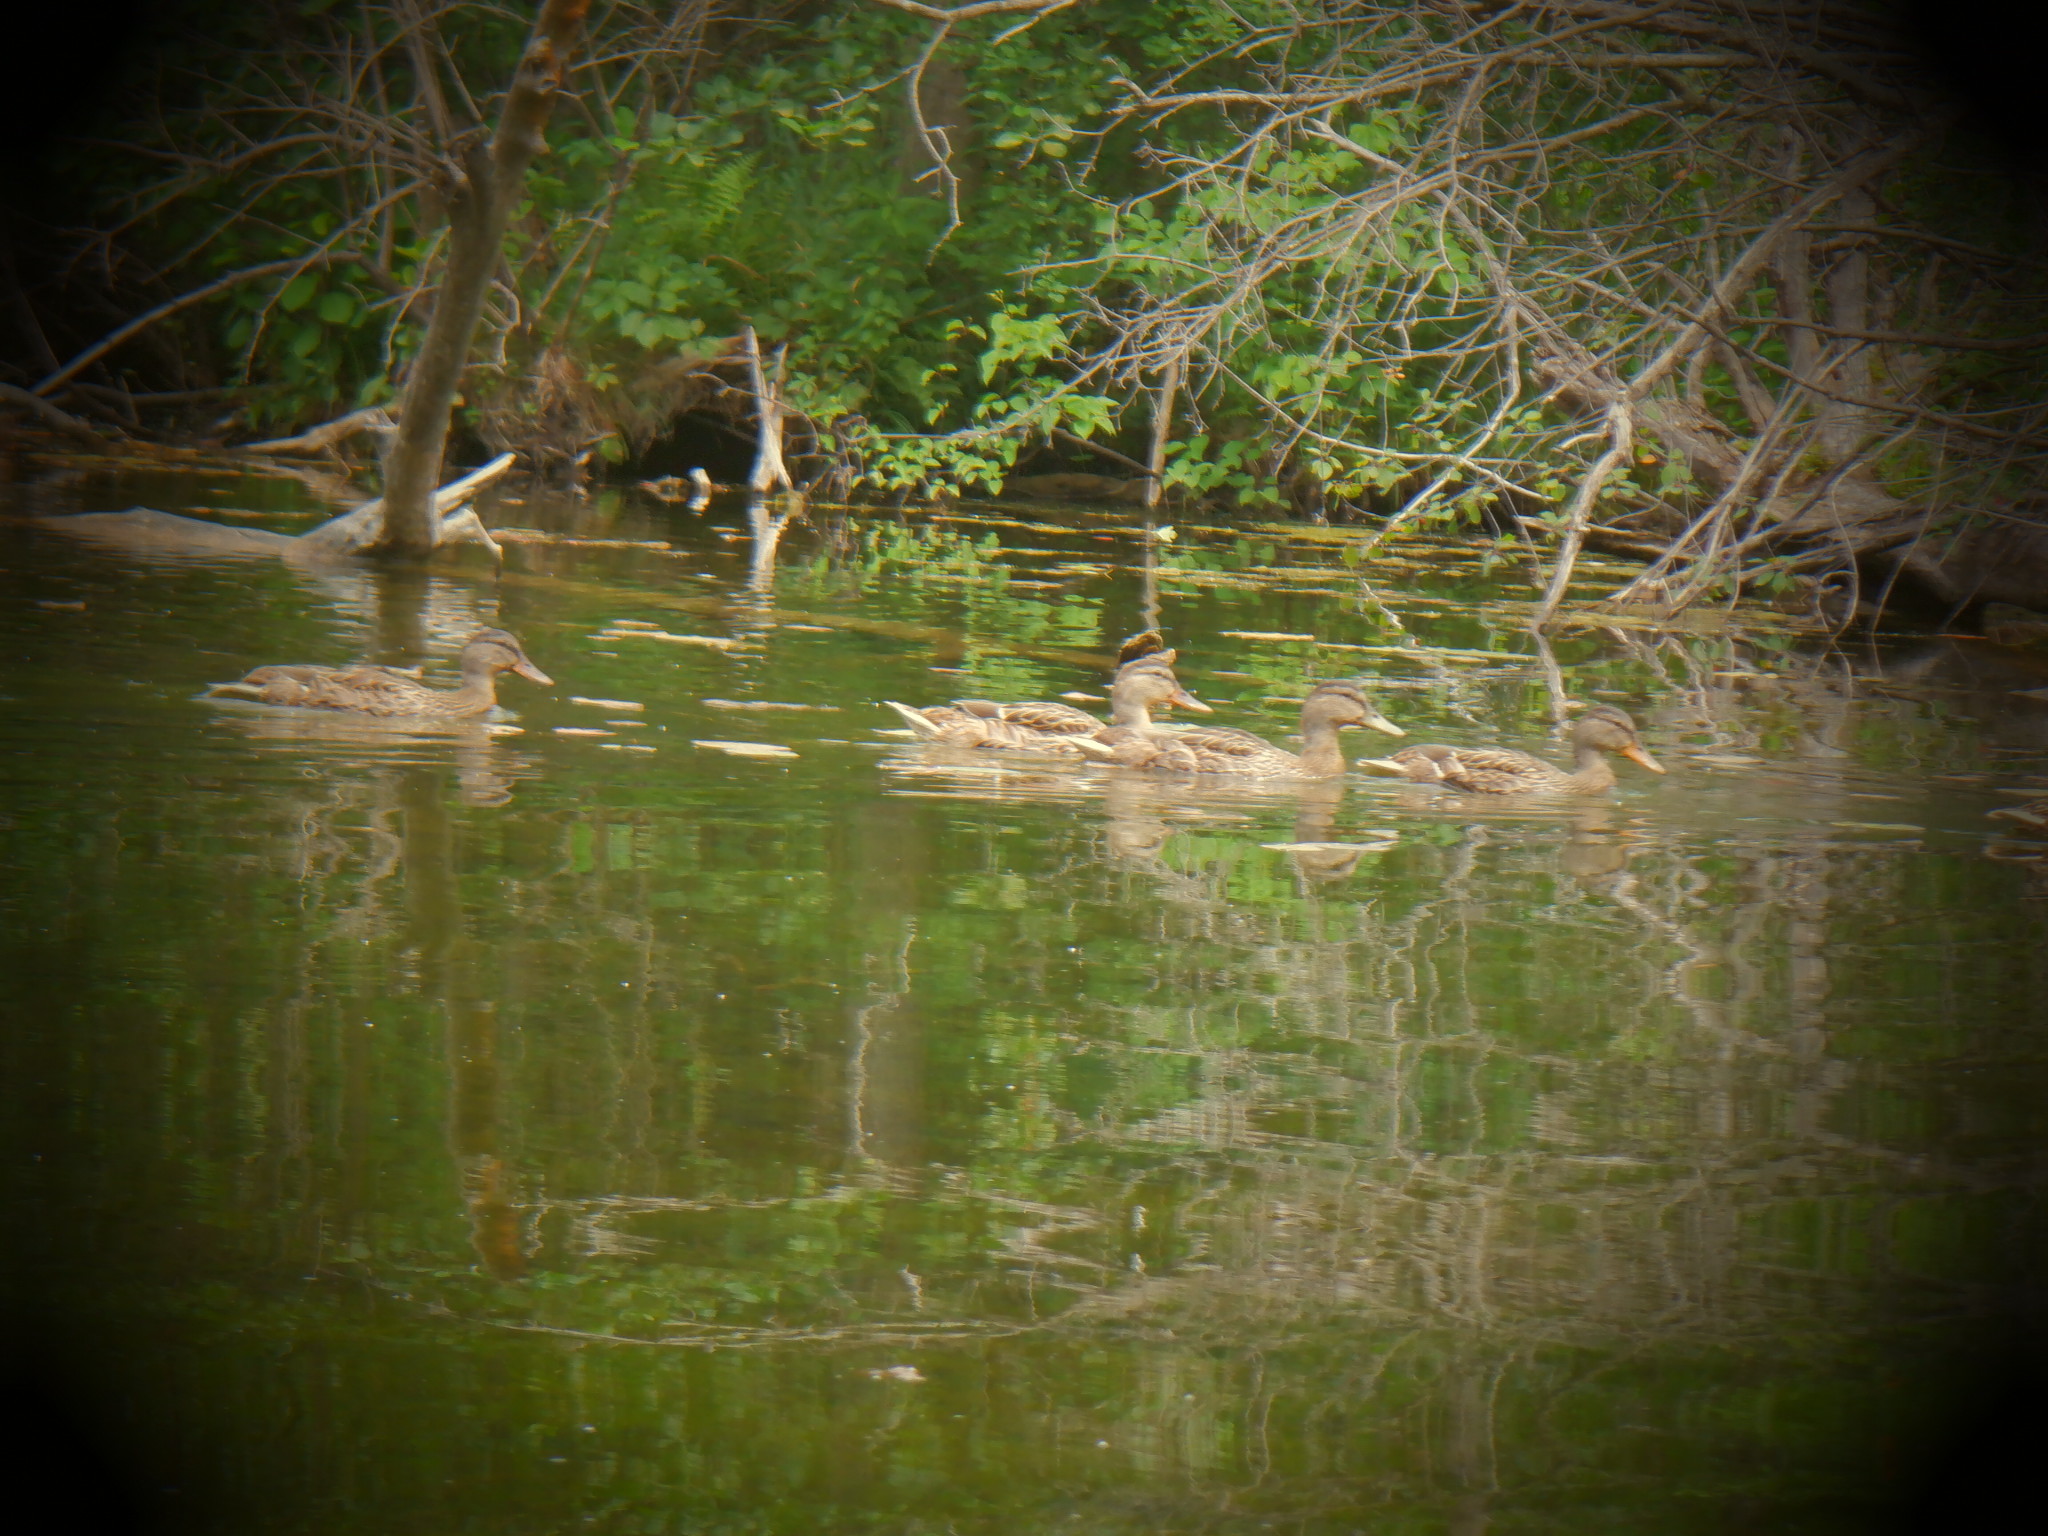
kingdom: Animalia
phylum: Chordata
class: Aves
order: Anseriformes
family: Anatidae
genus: Anas
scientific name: Anas platyrhynchos
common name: Mallard
